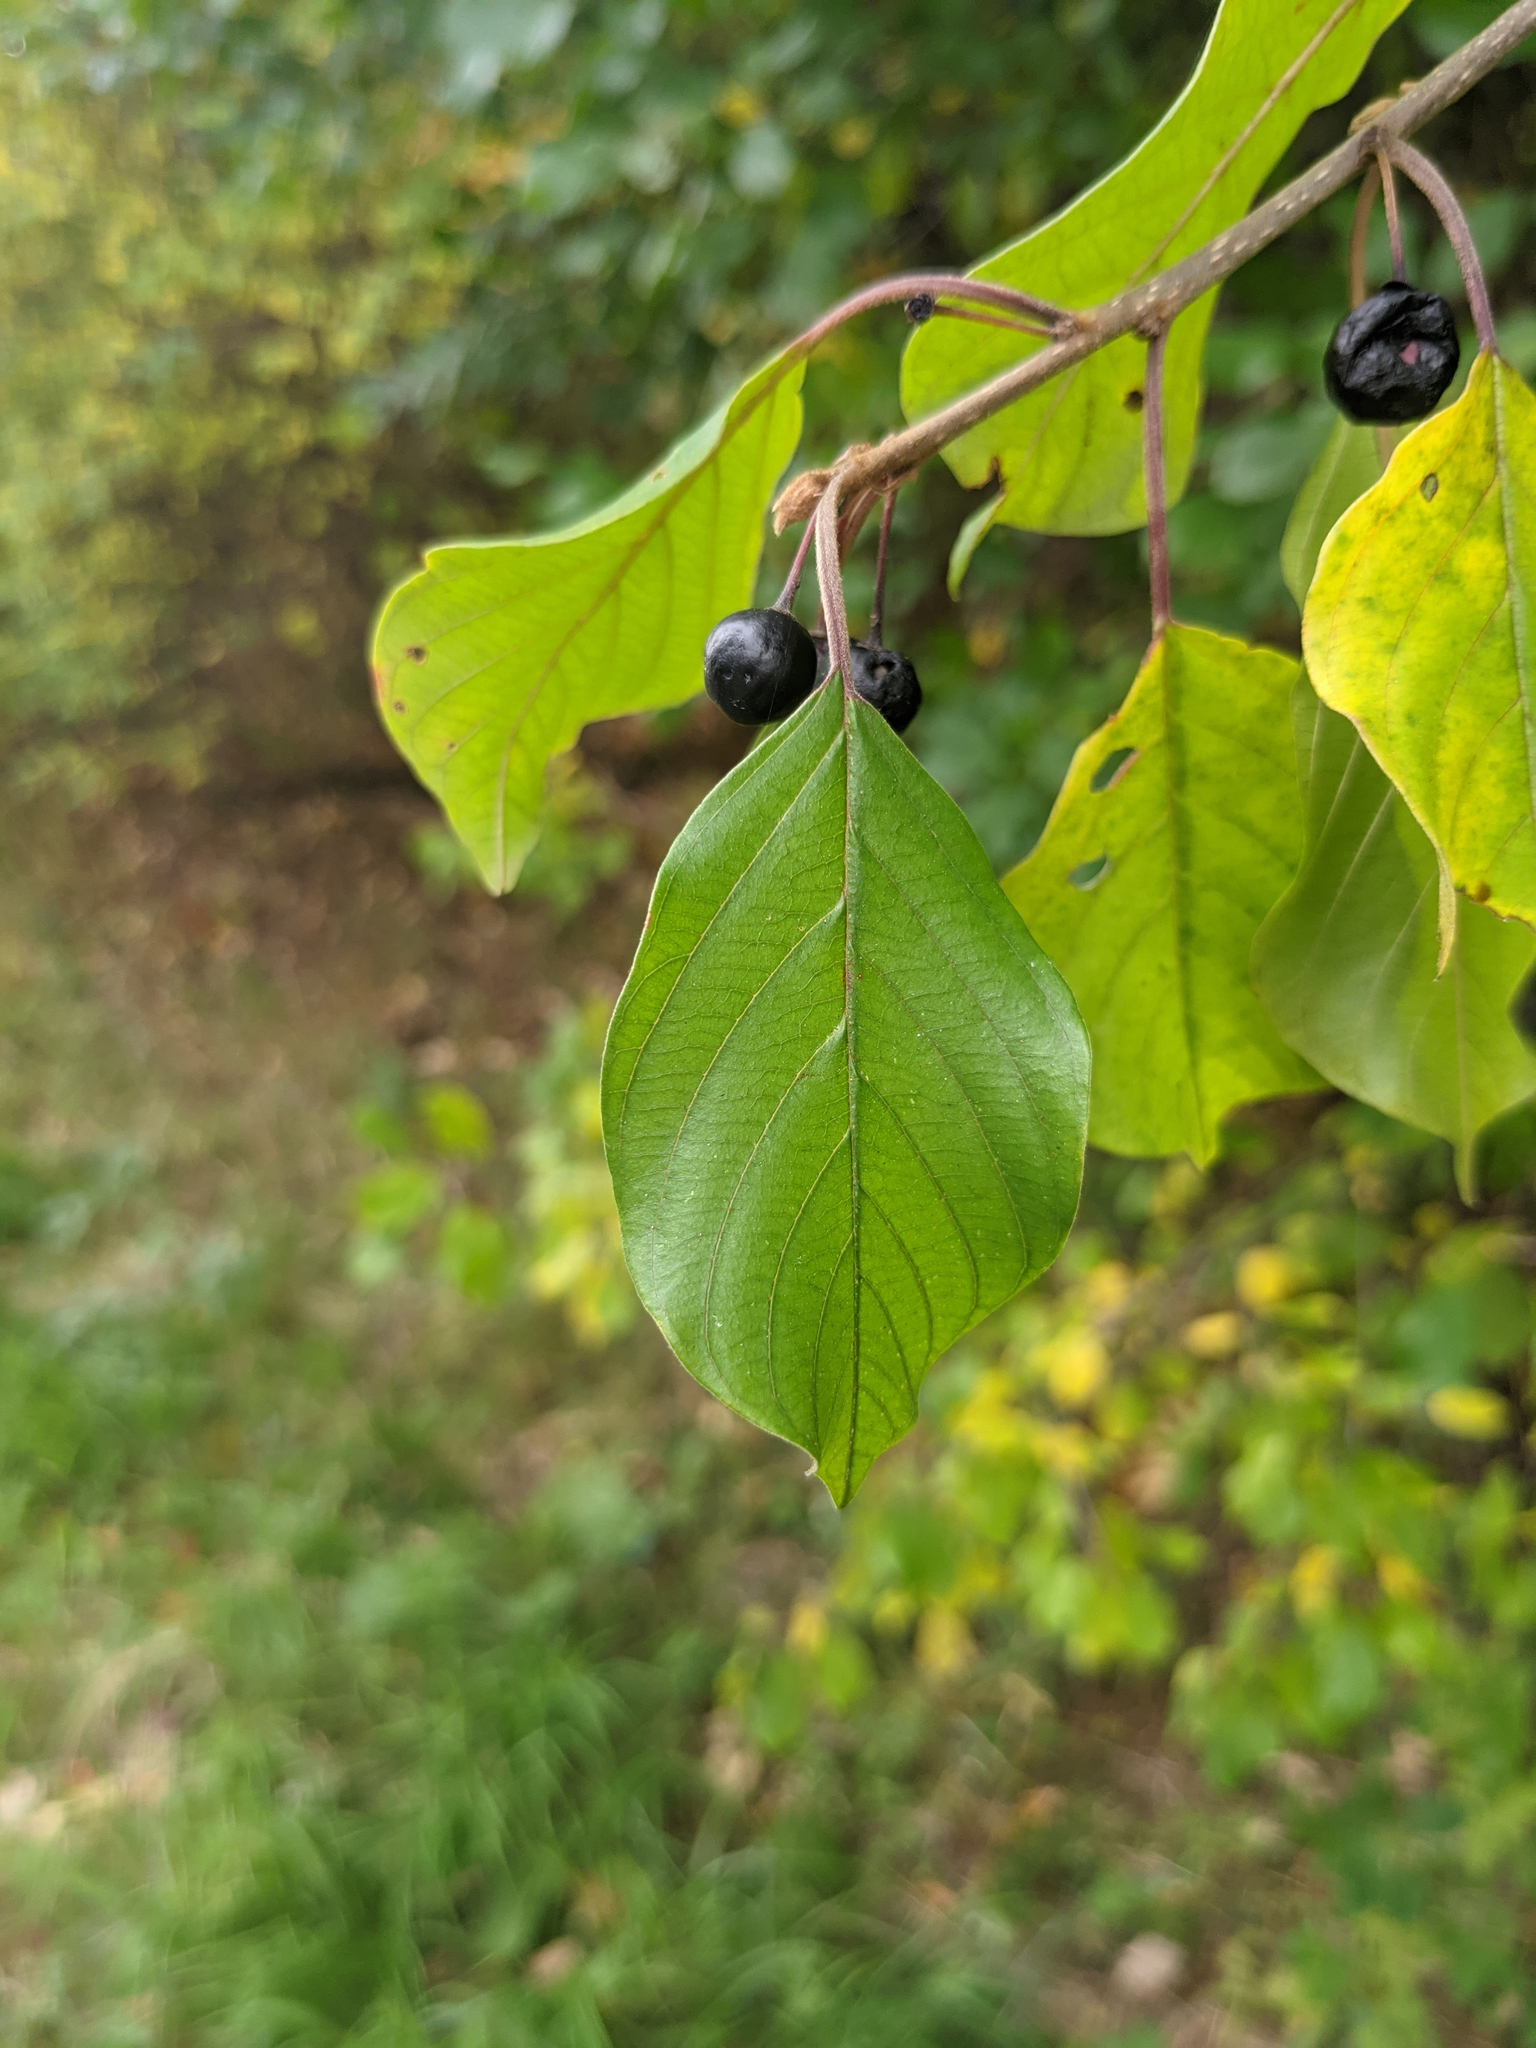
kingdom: Plantae
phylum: Tracheophyta
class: Magnoliopsida
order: Rosales
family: Rhamnaceae
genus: Frangula
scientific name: Frangula alnus
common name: Alder buckthorn
